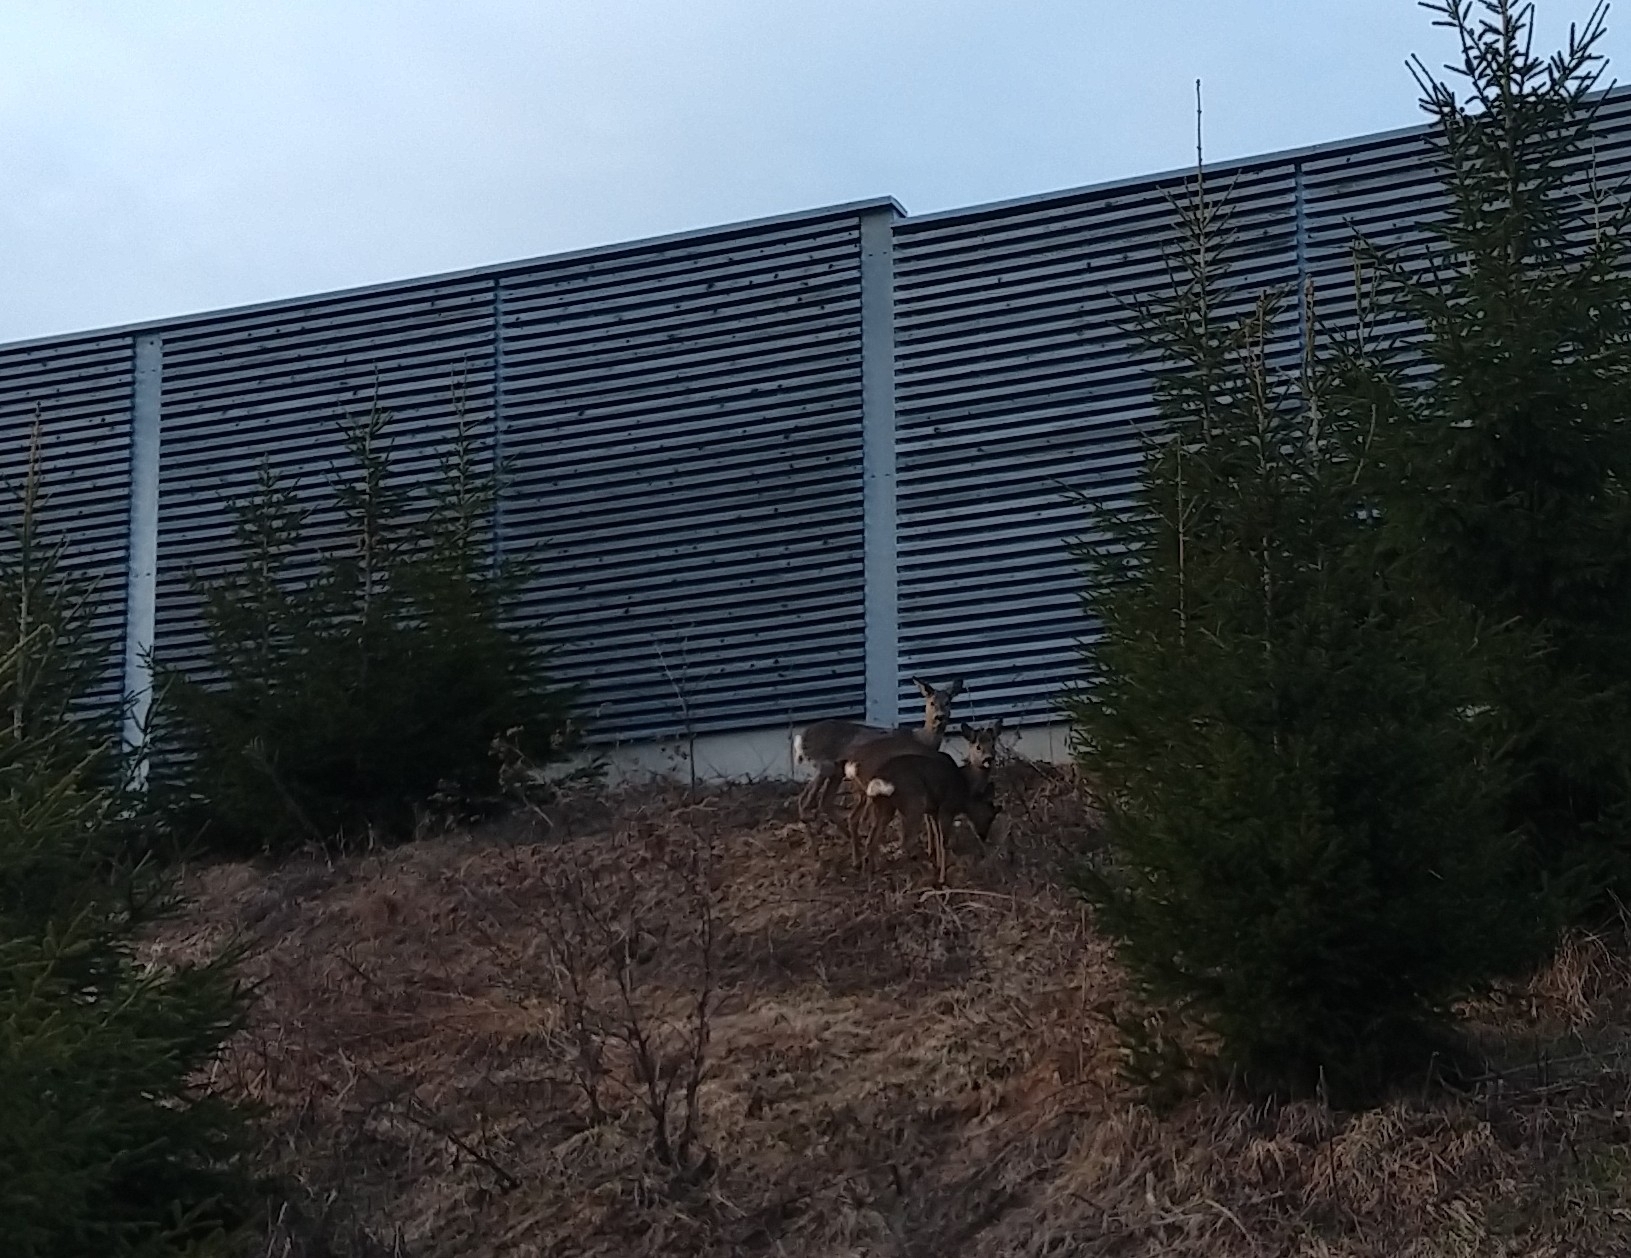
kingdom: Animalia
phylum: Chordata
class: Mammalia
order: Artiodactyla
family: Cervidae
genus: Capreolus
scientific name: Capreolus capreolus
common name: Western roe deer
